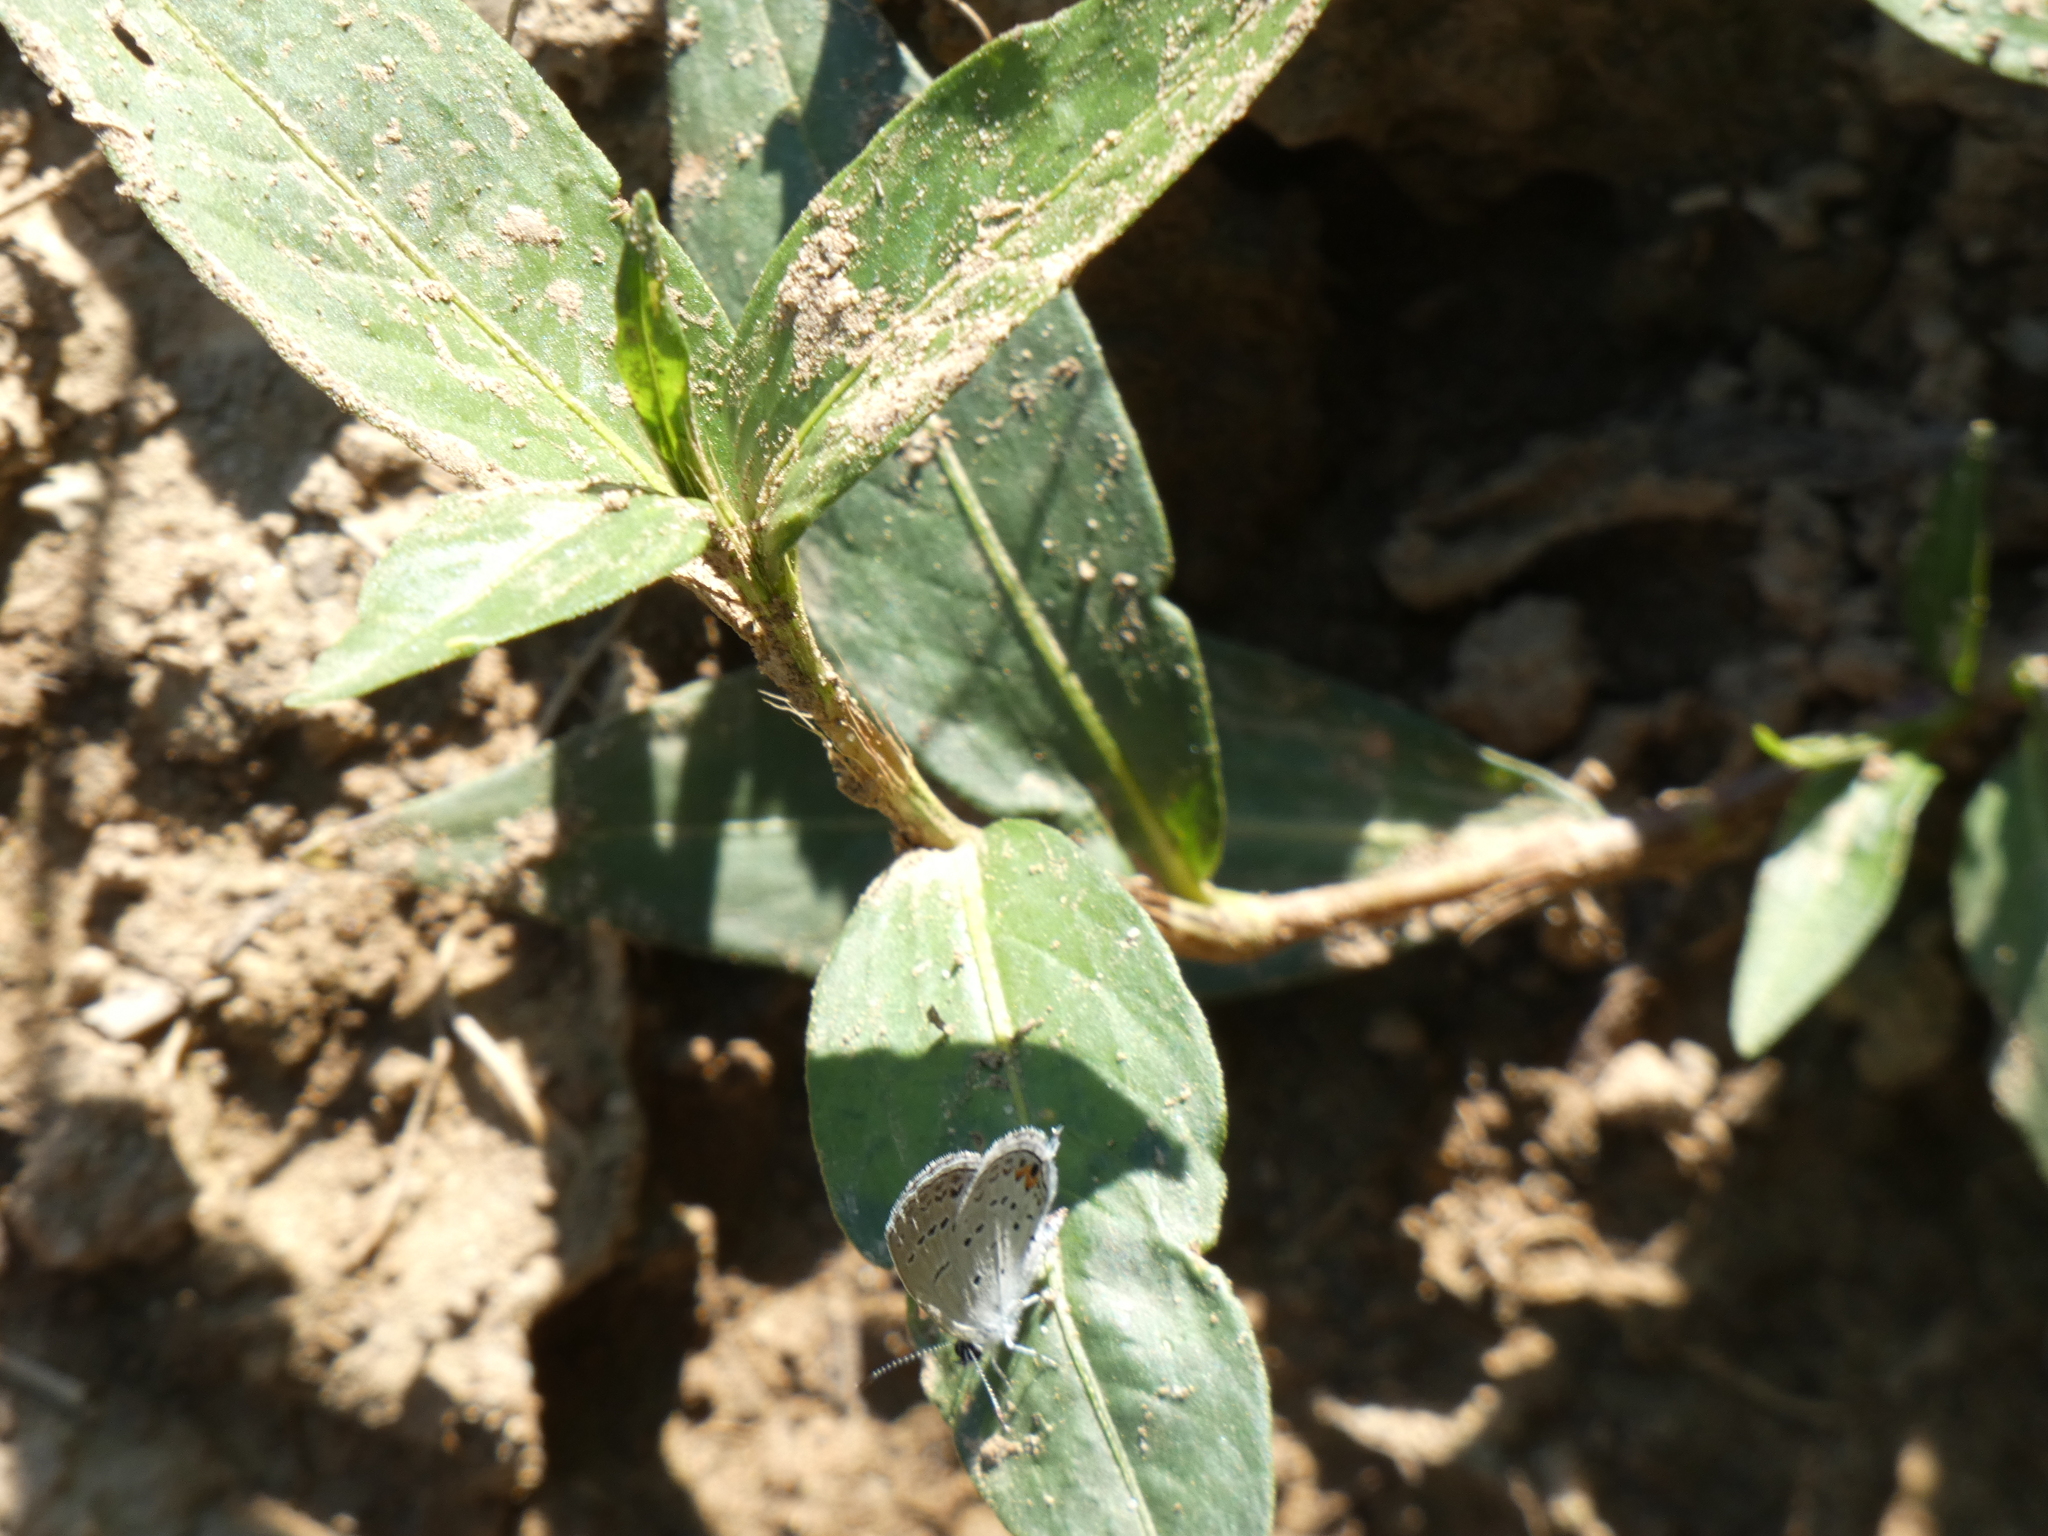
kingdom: Animalia
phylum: Arthropoda
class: Insecta
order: Lepidoptera
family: Lycaenidae
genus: Elkalyce
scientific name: Elkalyce comyntas
